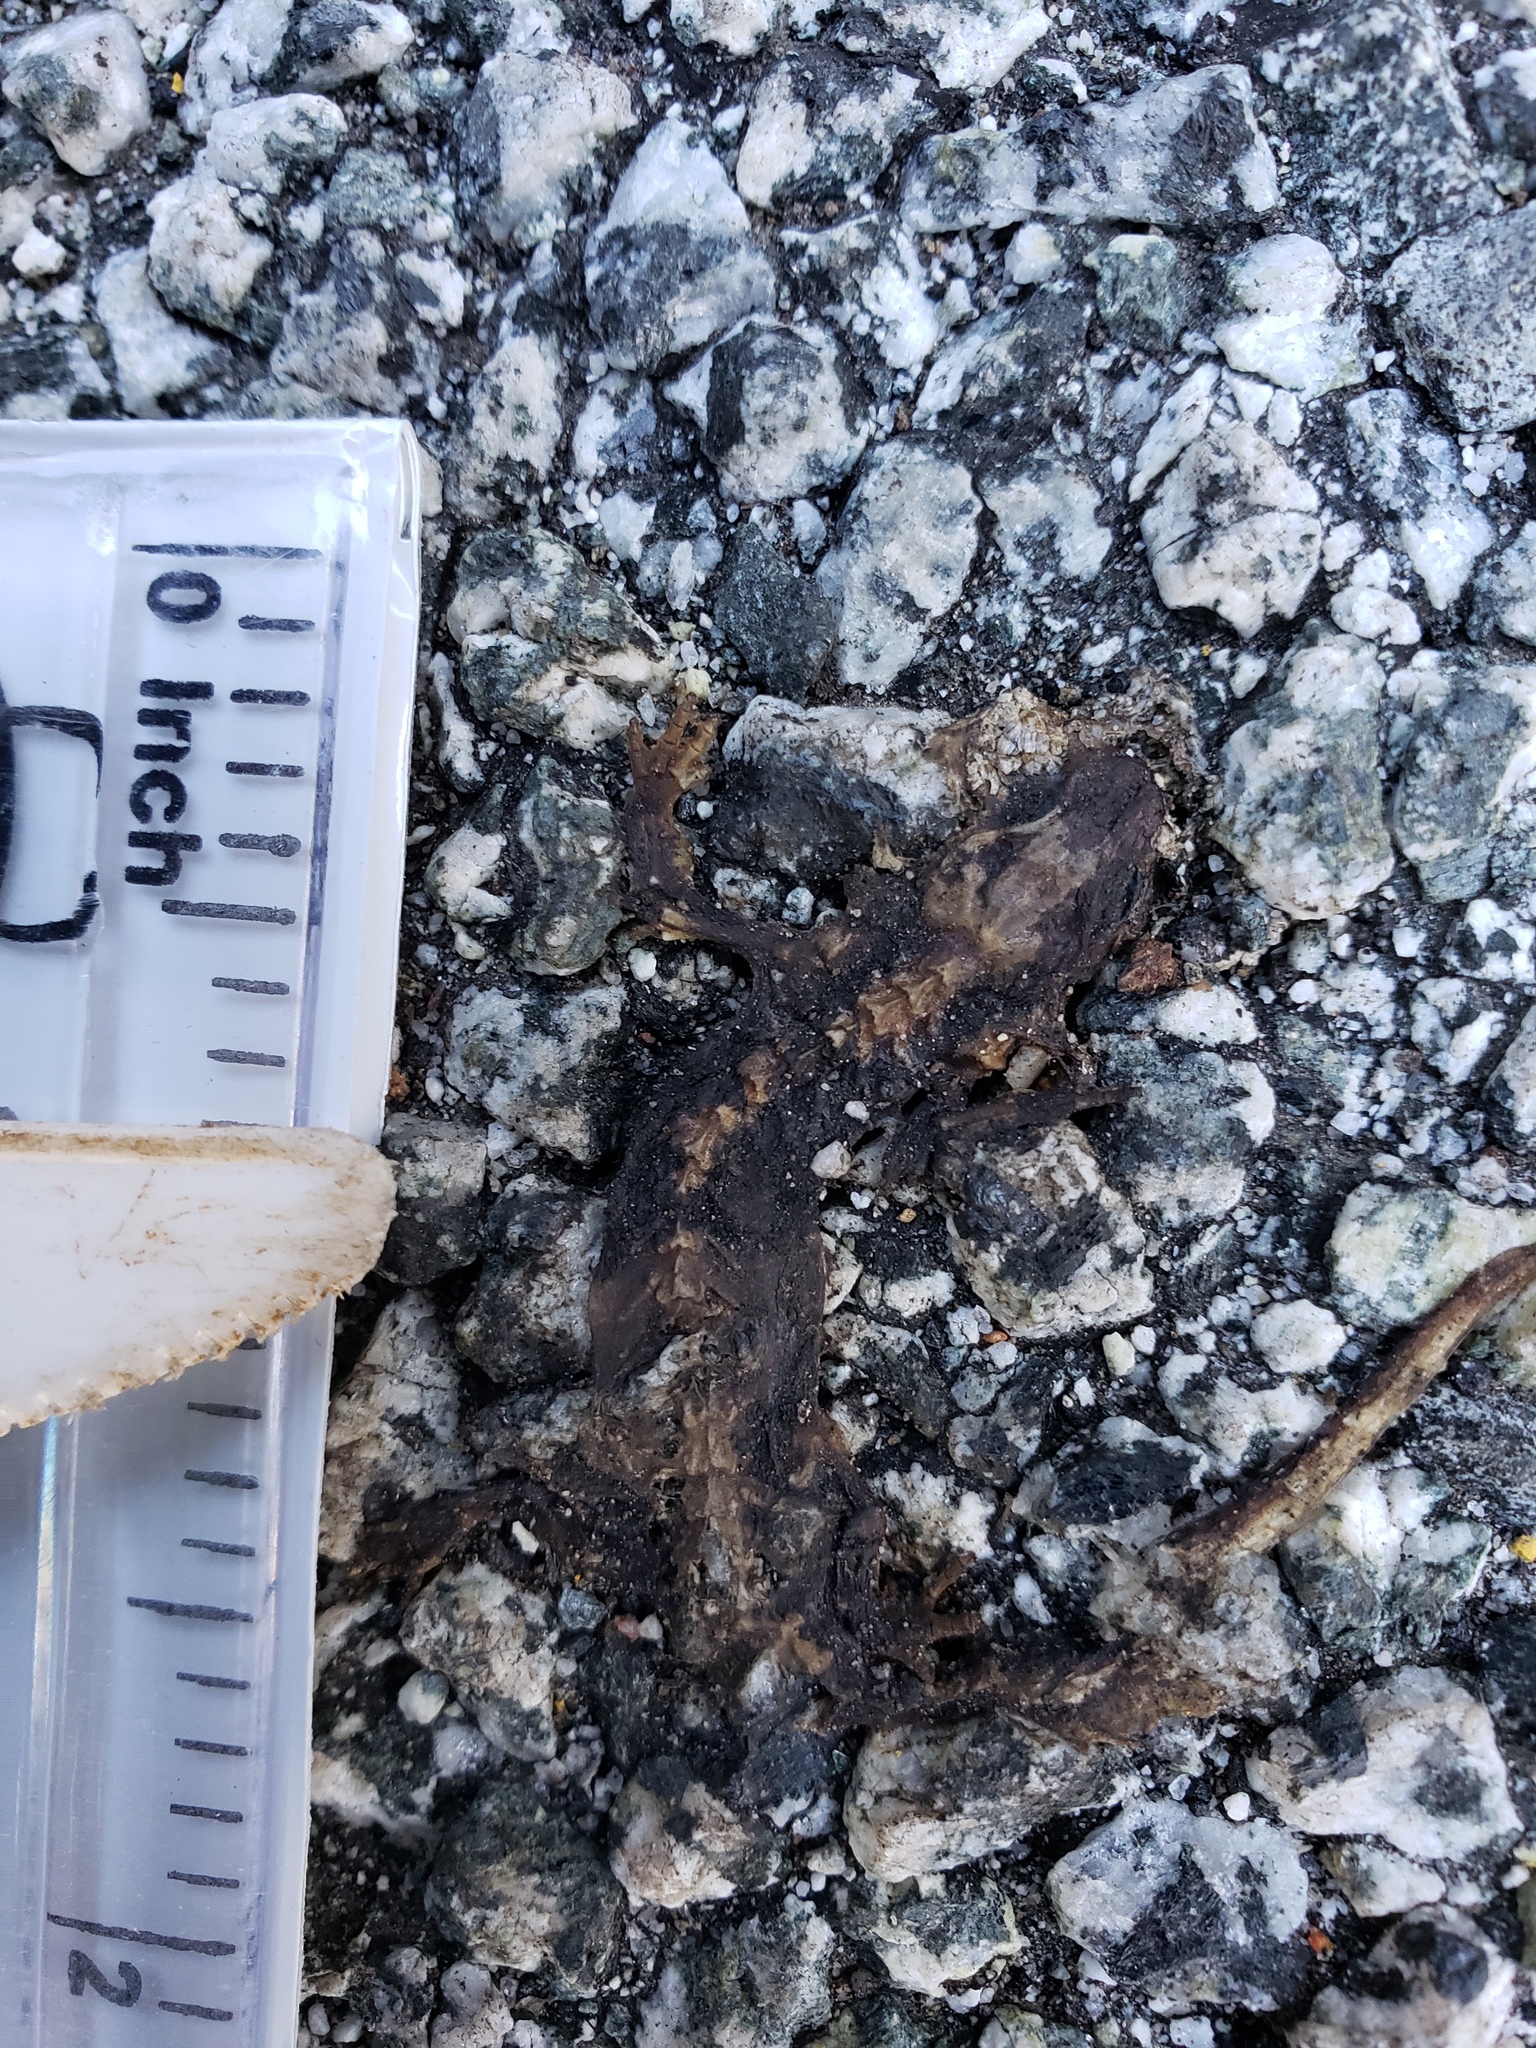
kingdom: Animalia
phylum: Chordata
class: Amphibia
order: Caudata
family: Salamandridae
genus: Taricha
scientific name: Taricha
